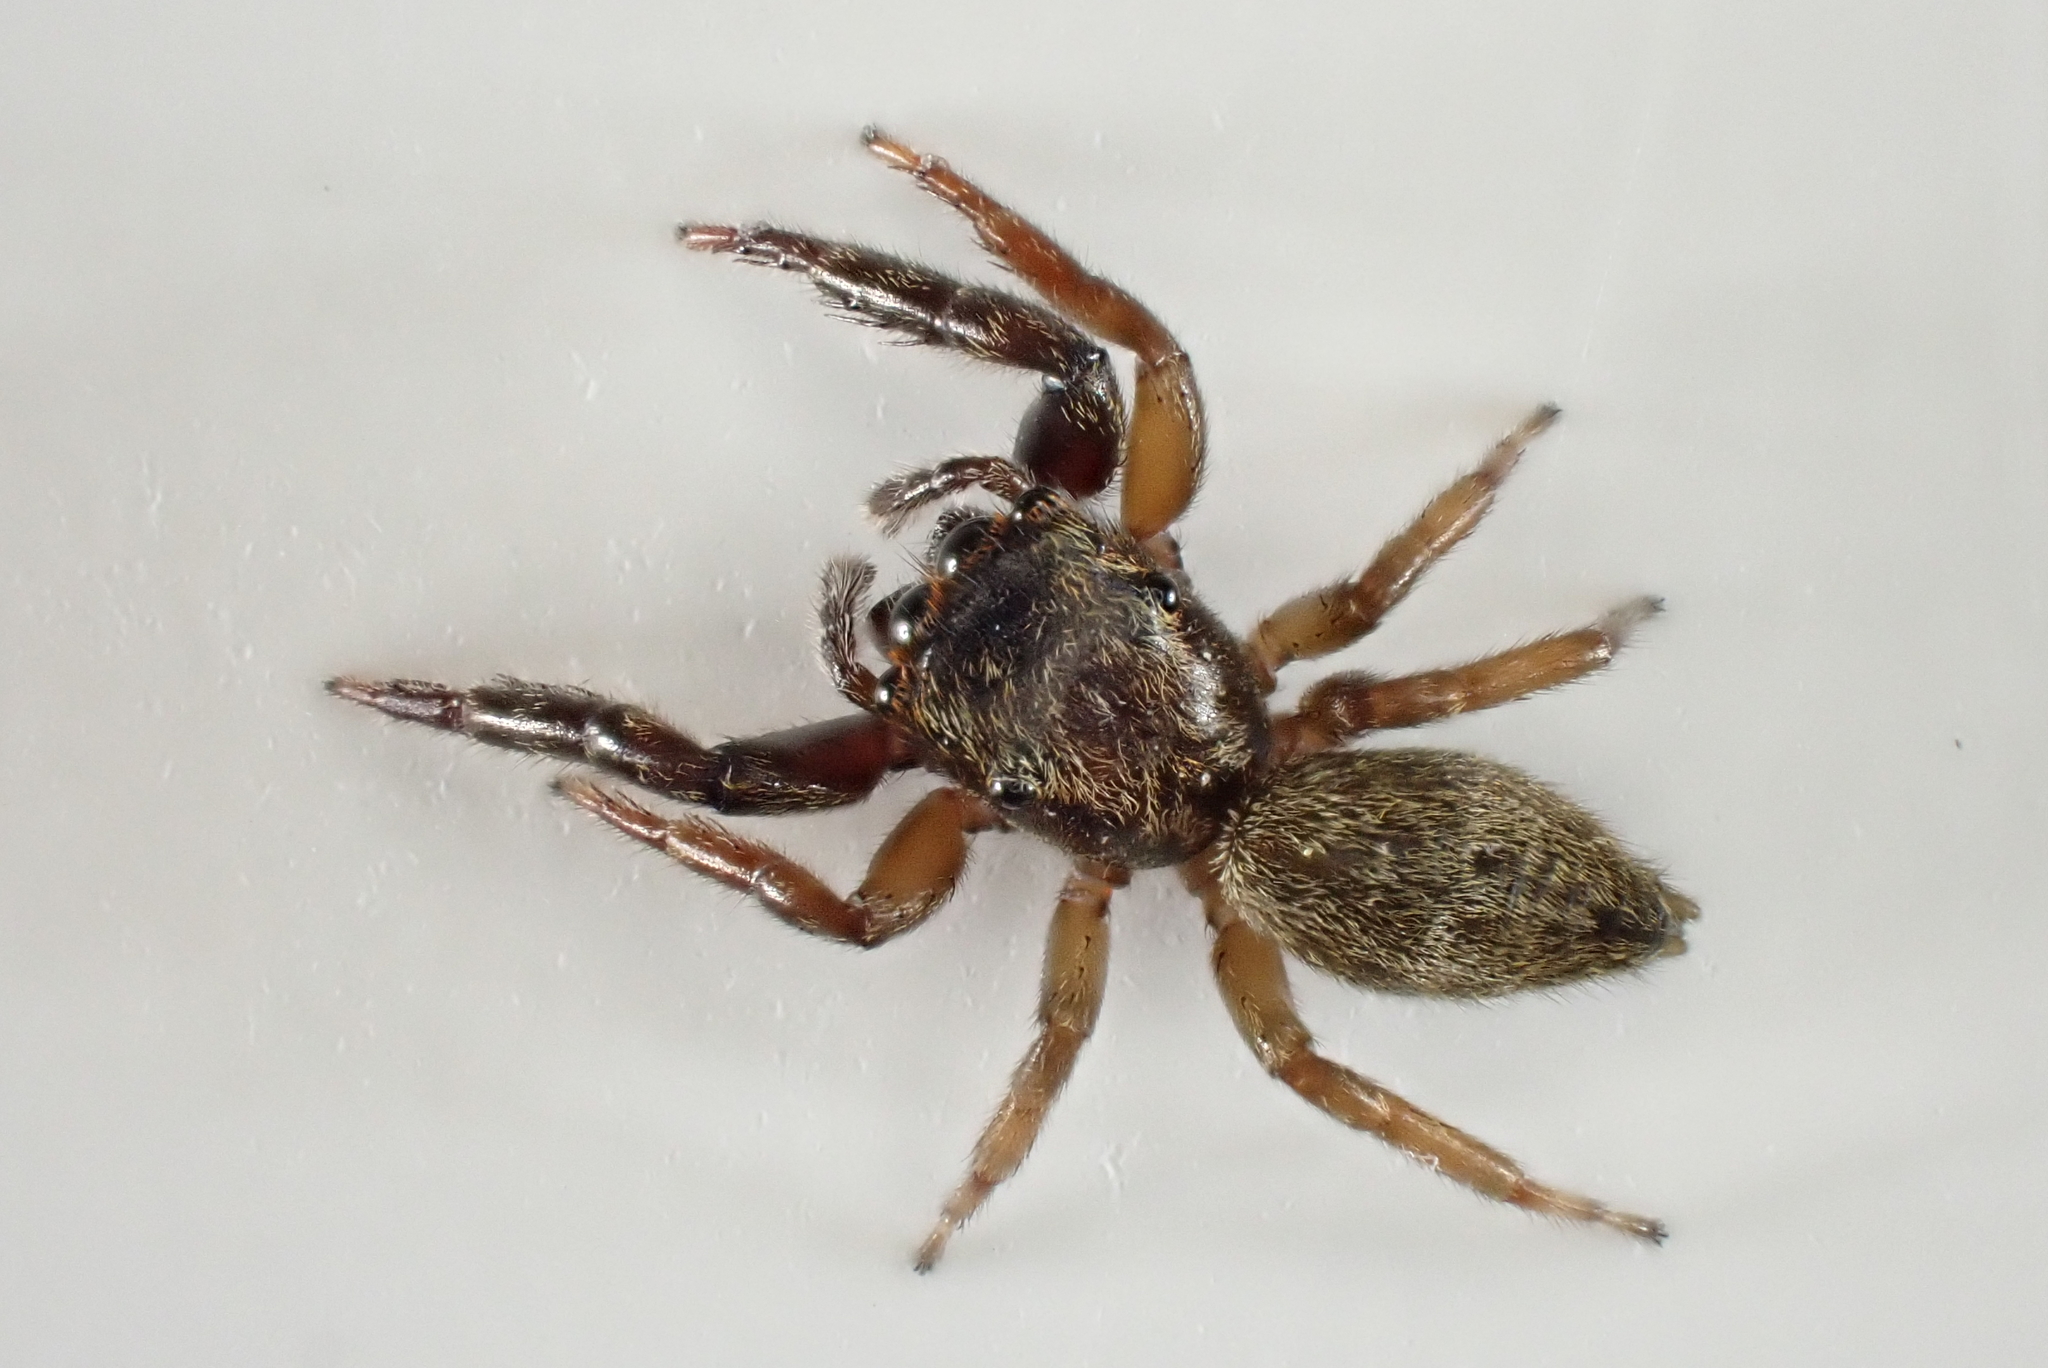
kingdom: Animalia
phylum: Arthropoda
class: Arachnida
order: Araneae
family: Salticidae
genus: Trite
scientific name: Trite auricoma
